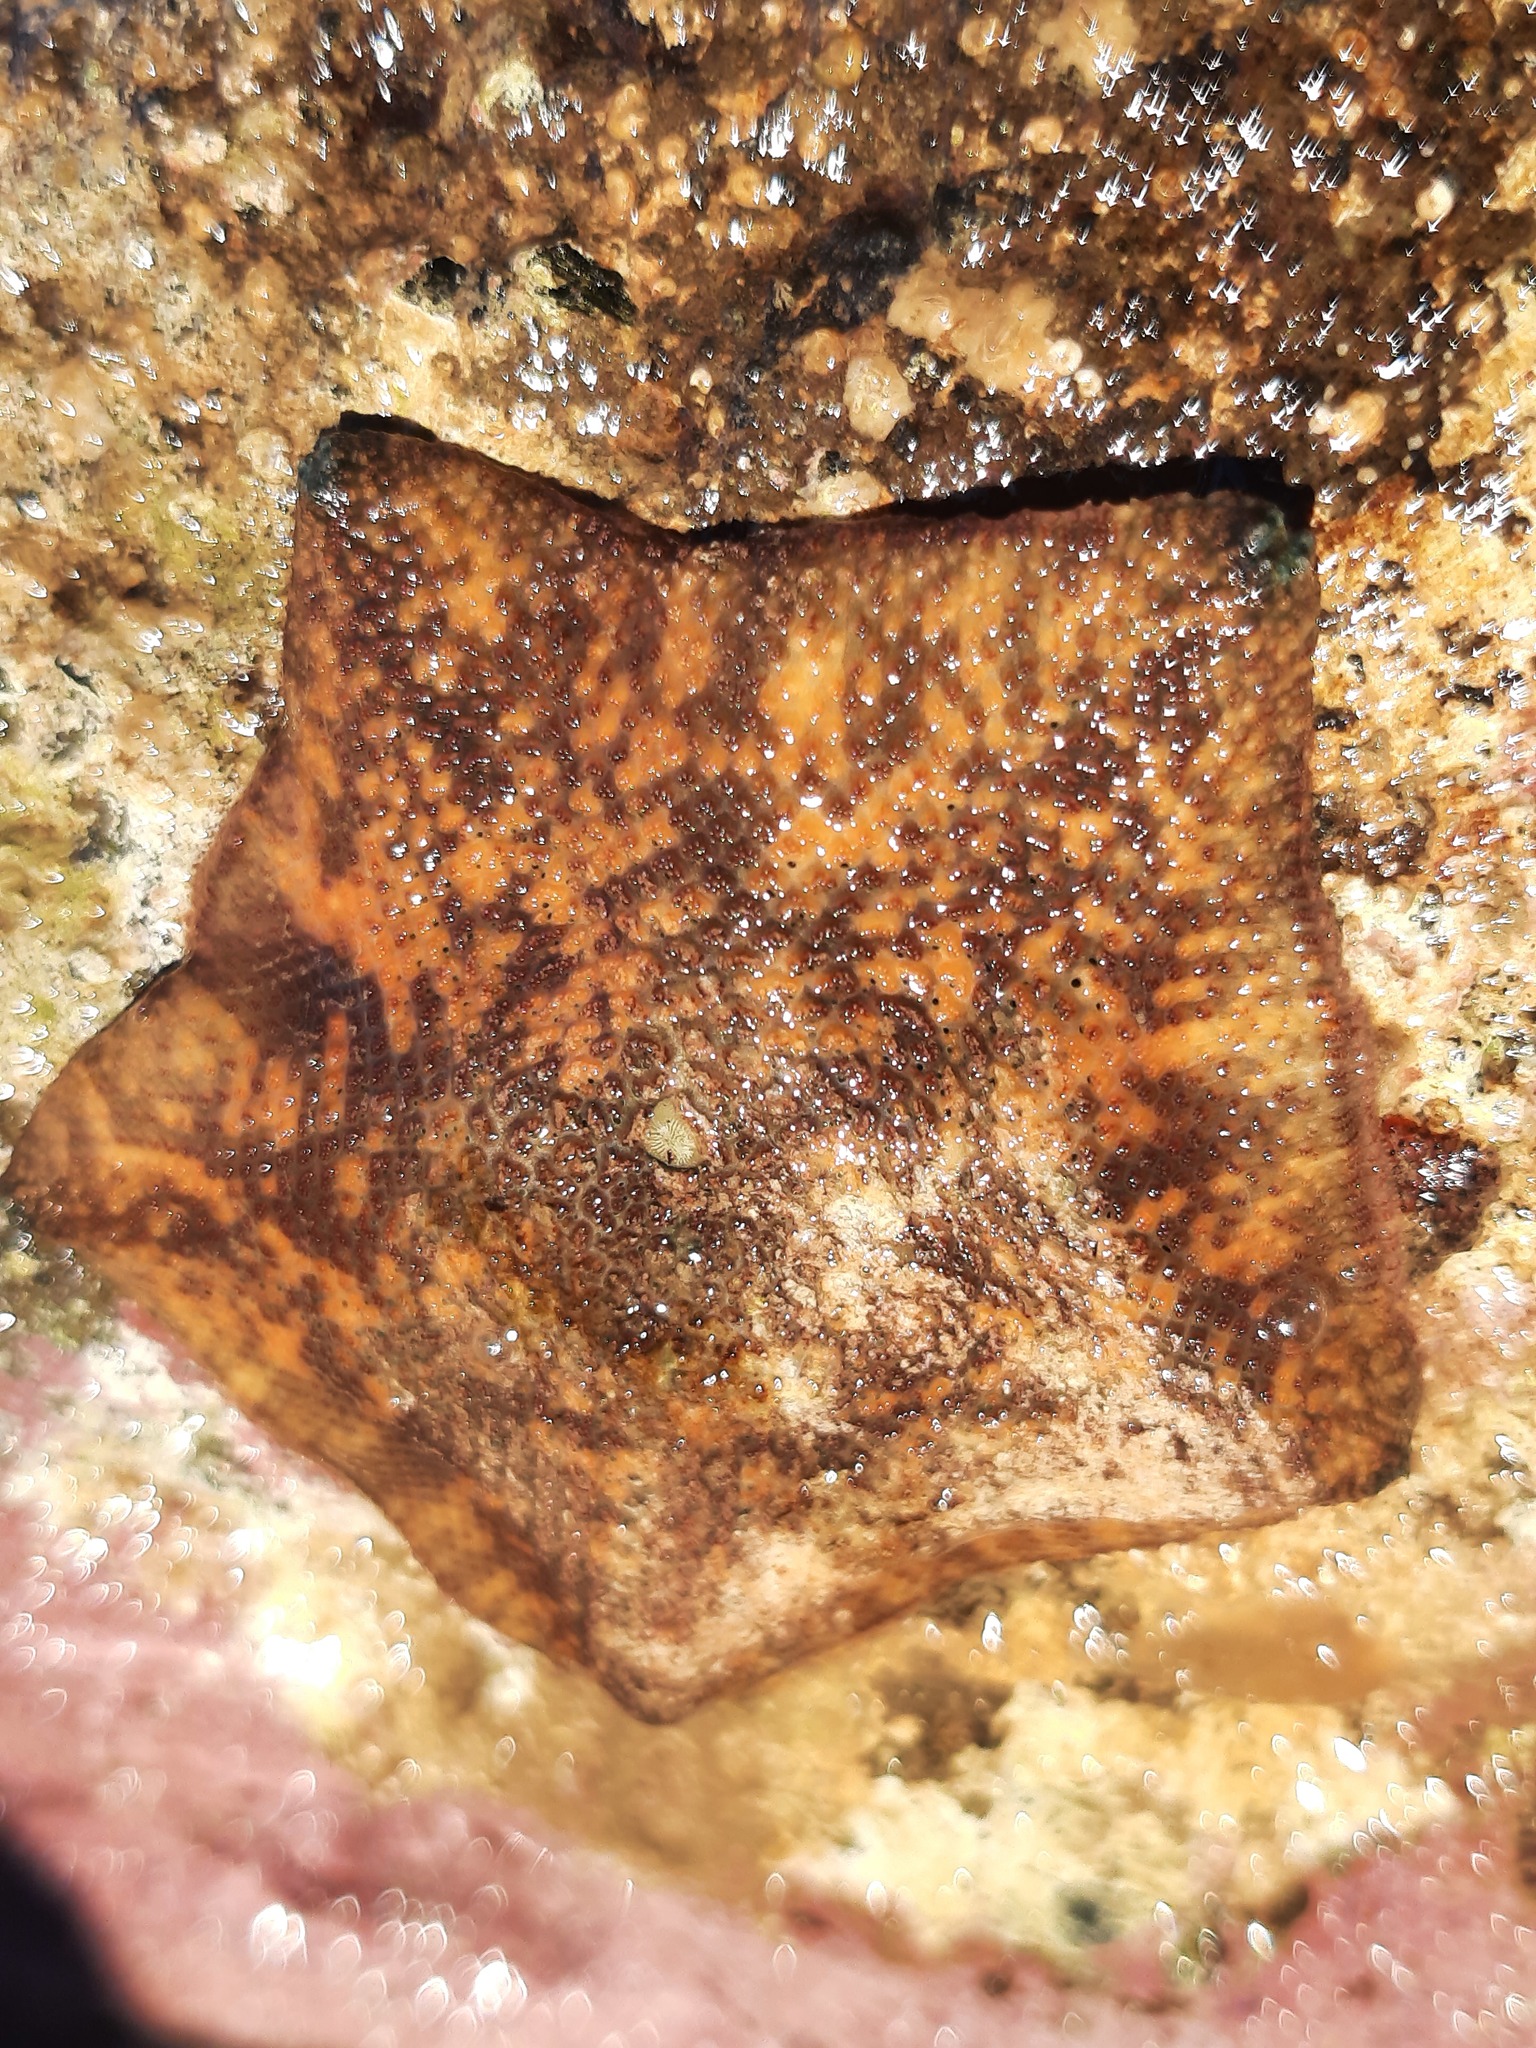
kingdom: Animalia
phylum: Echinodermata
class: Asteroidea
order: Valvatida
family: Asterinidae
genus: Patiriella
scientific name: Patiriella regularis
